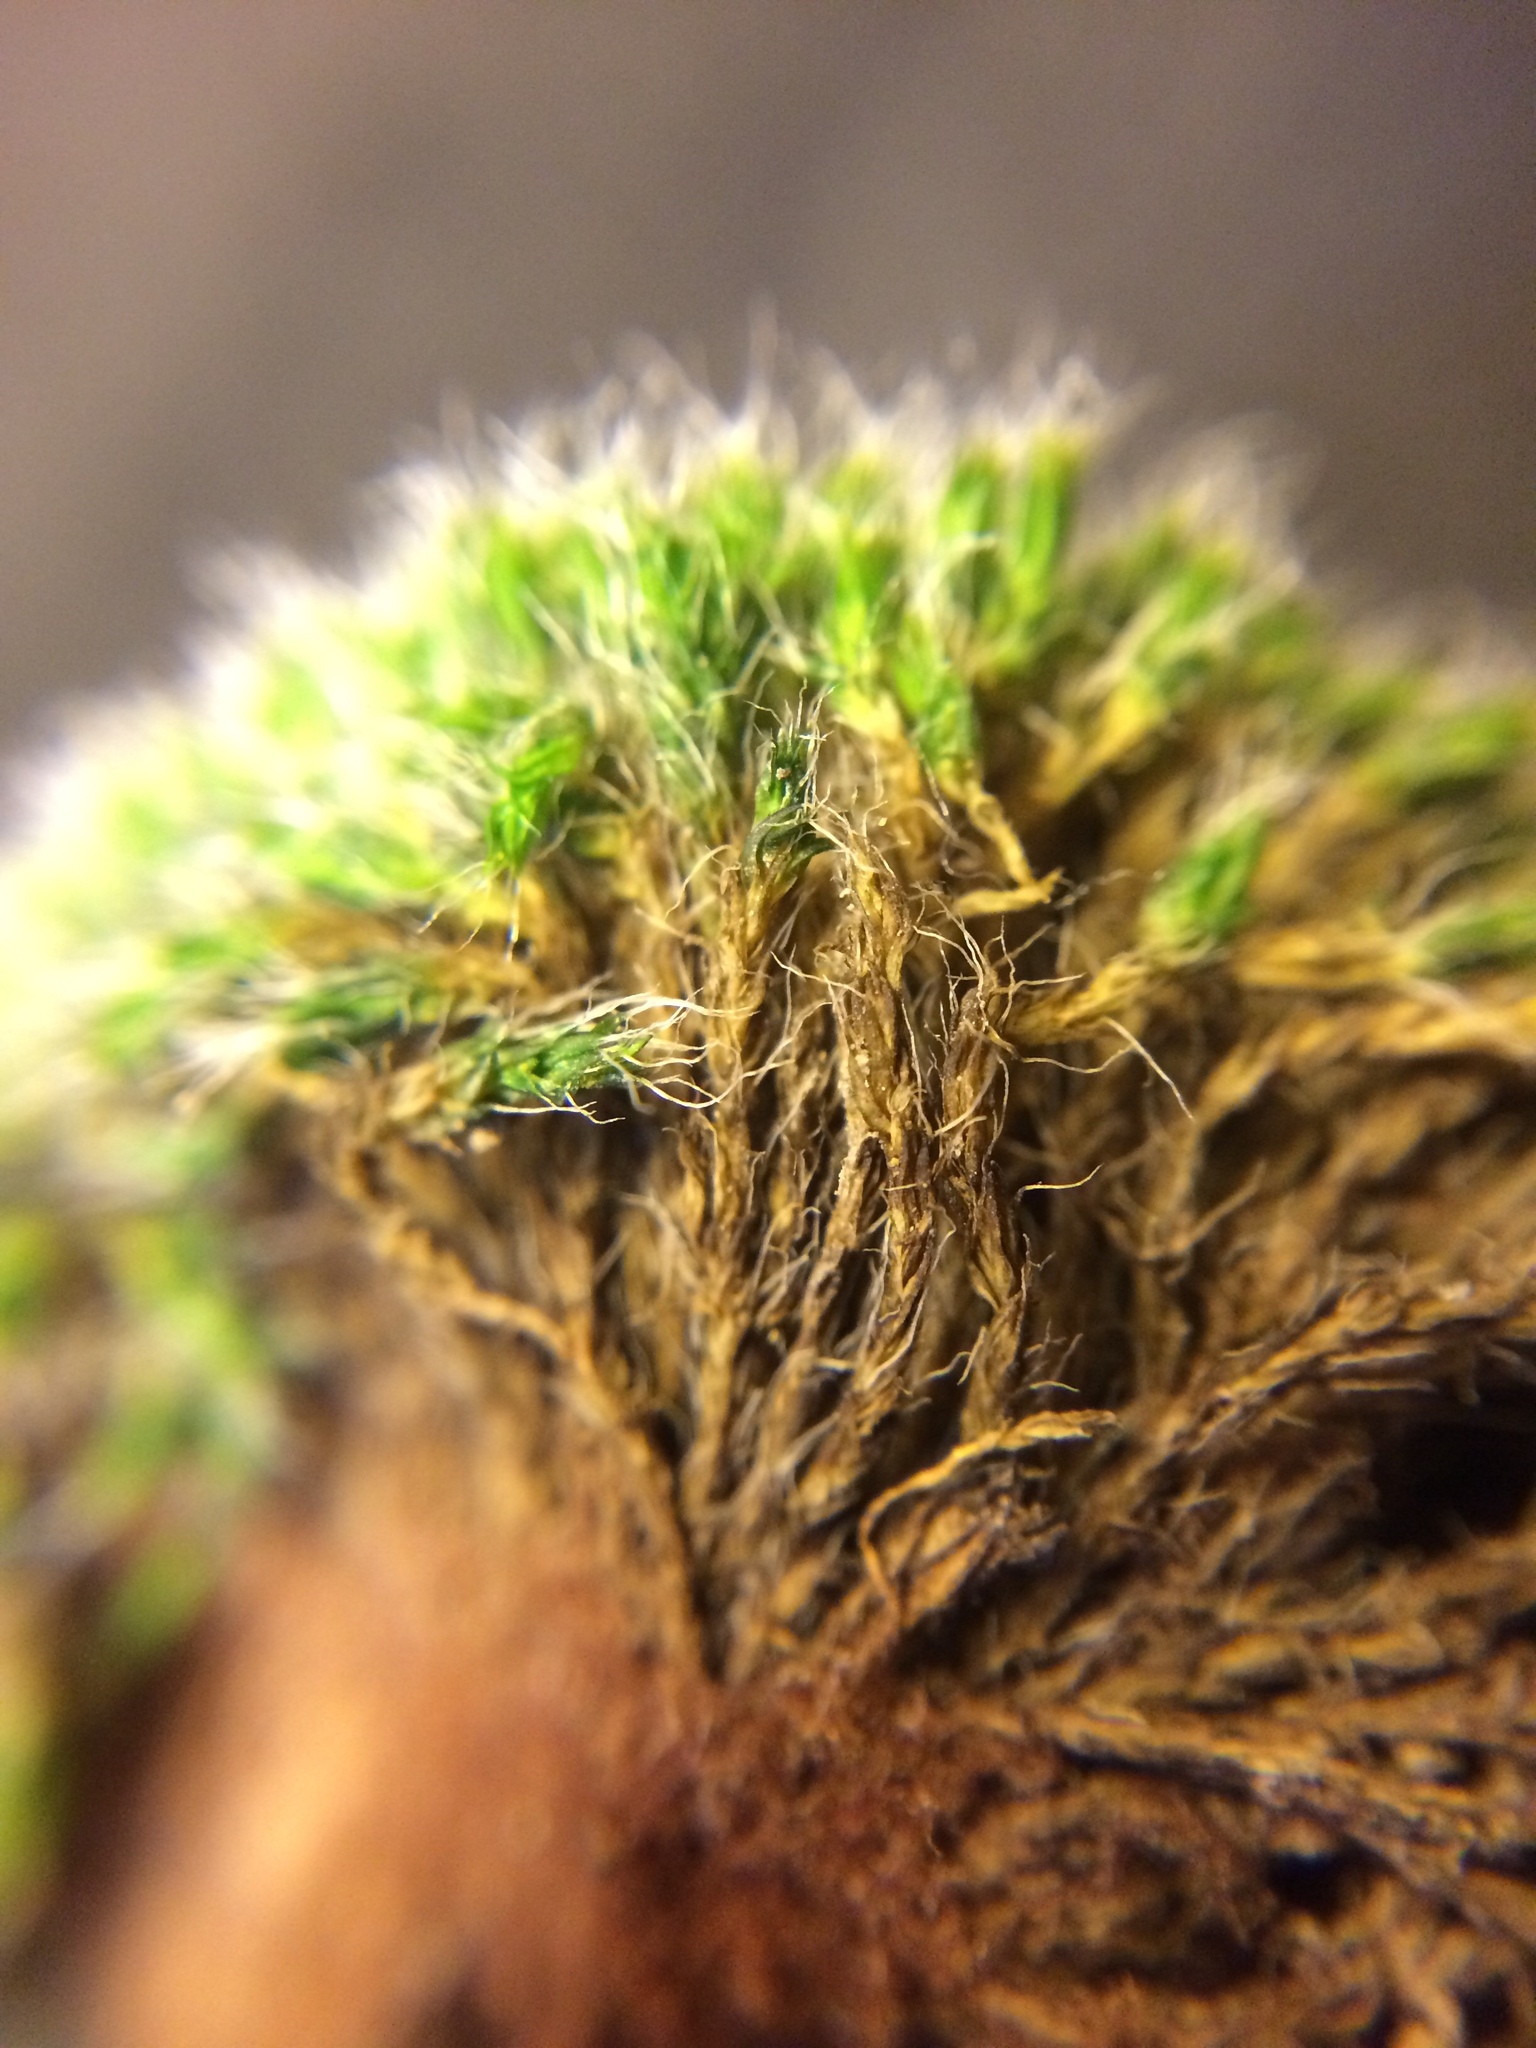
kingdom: Plantae
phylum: Bryophyta
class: Bryopsida
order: Grimmiales
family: Grimmiaceae
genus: Grimmia
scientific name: Grimmia pulvinata
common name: Grey-cushioned grimmia
